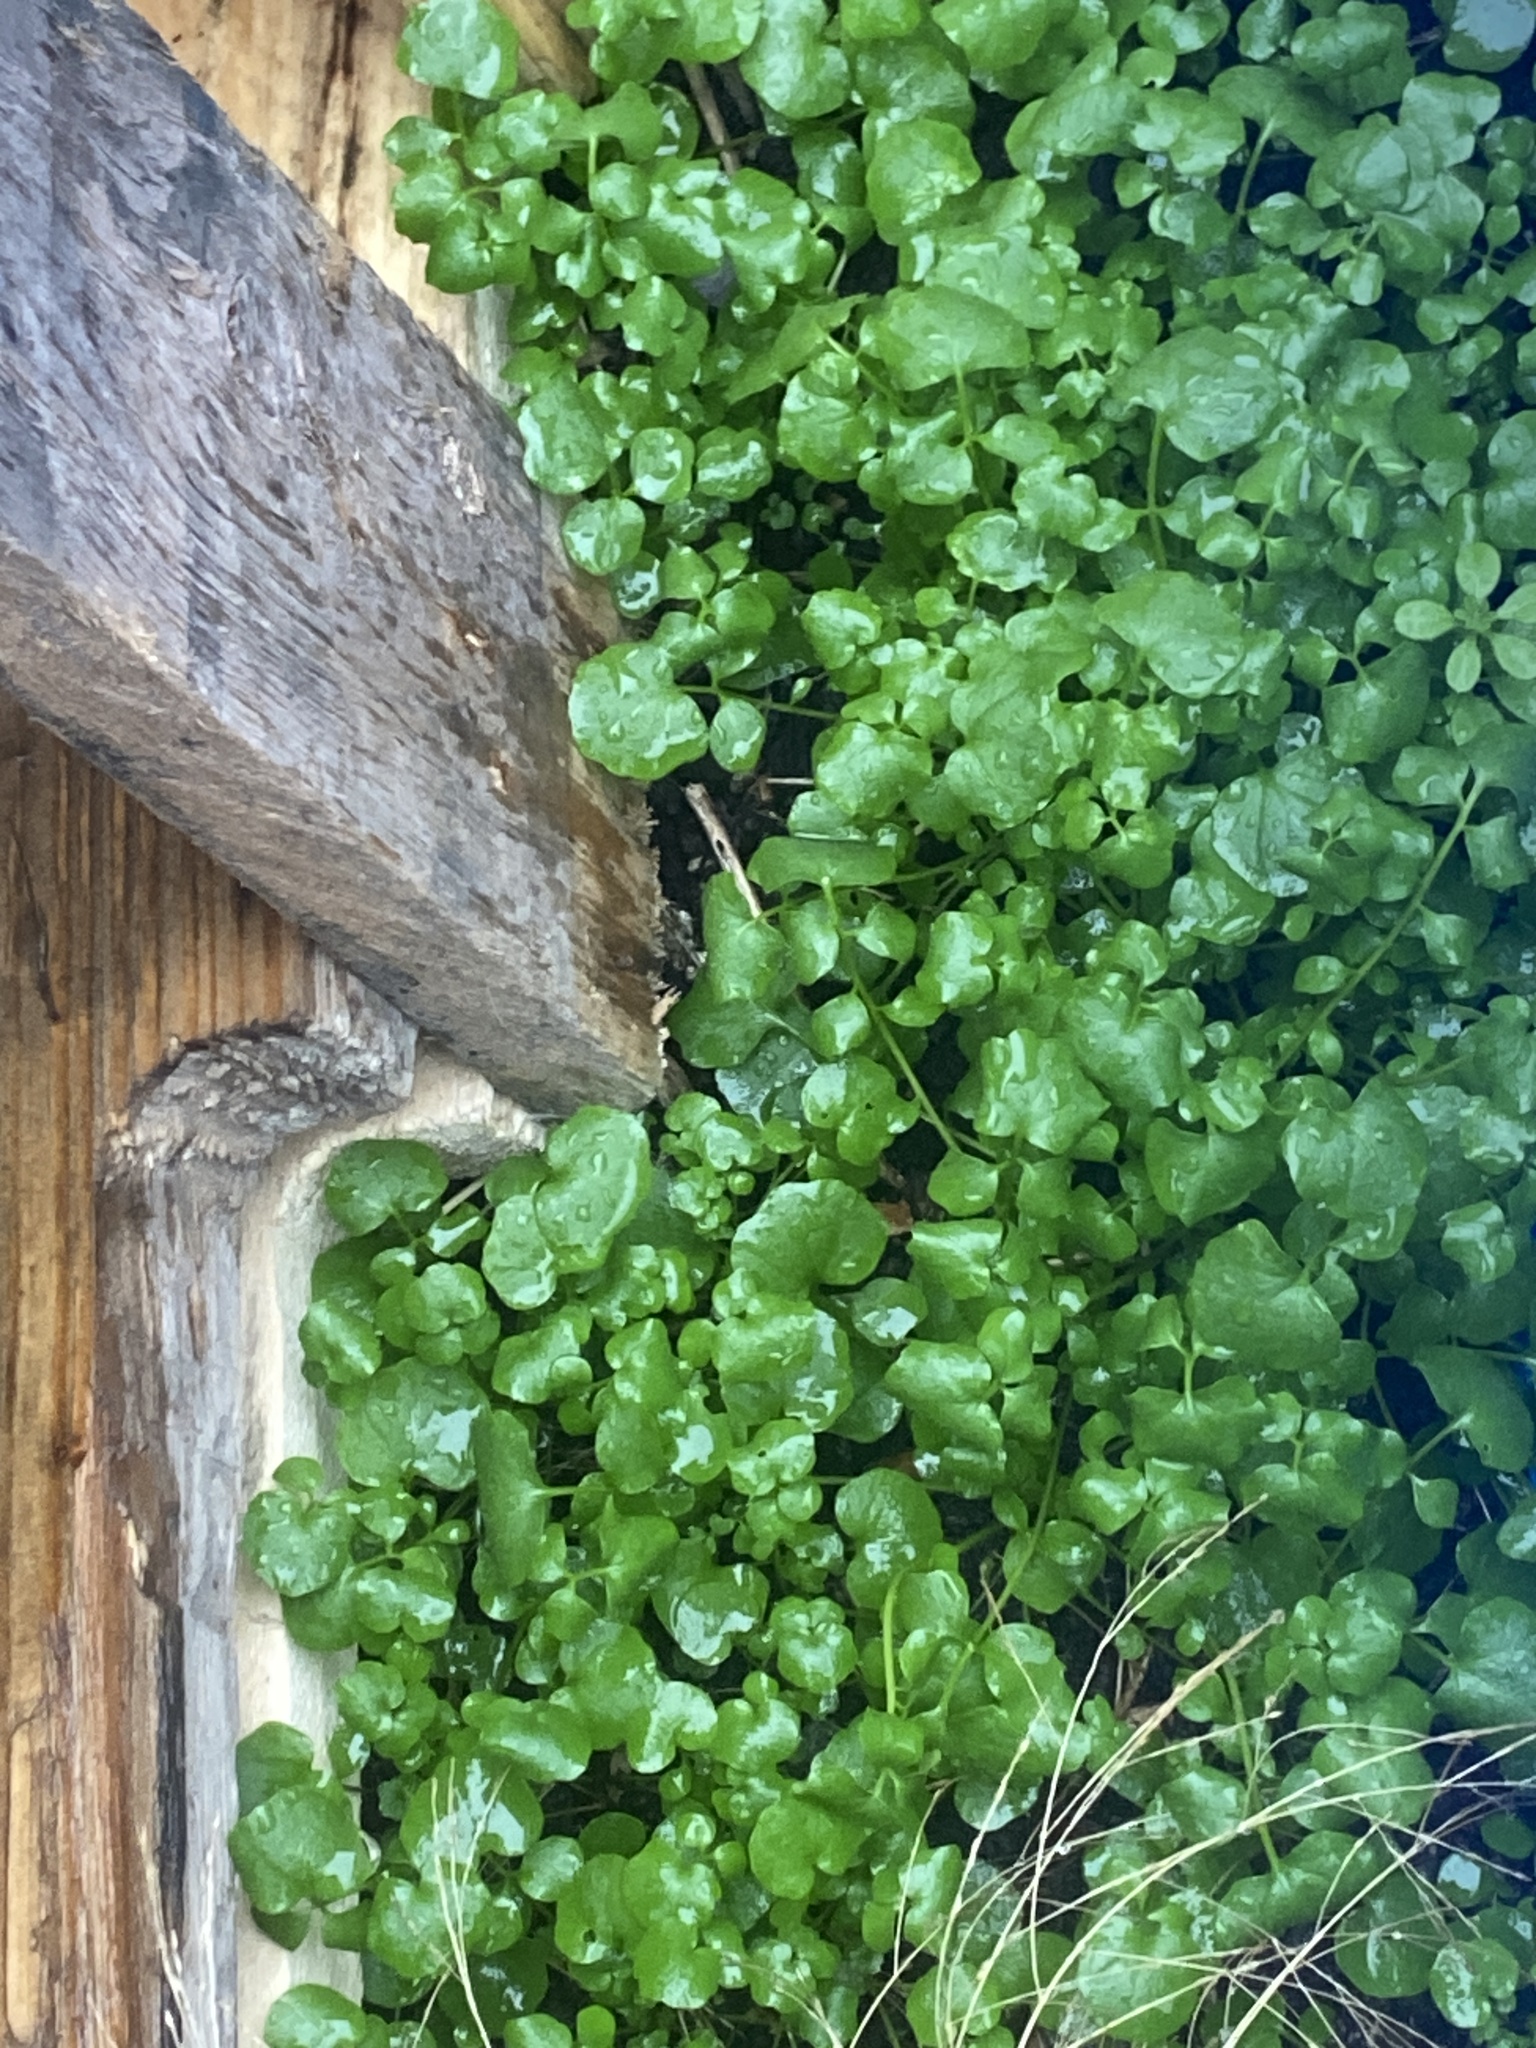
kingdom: Plantae
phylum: Tracheophyta
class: Magnoliopsida
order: Brassicales
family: Brassicaceae
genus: Nasturtium
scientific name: Nasturtium officinale
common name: Watercress
